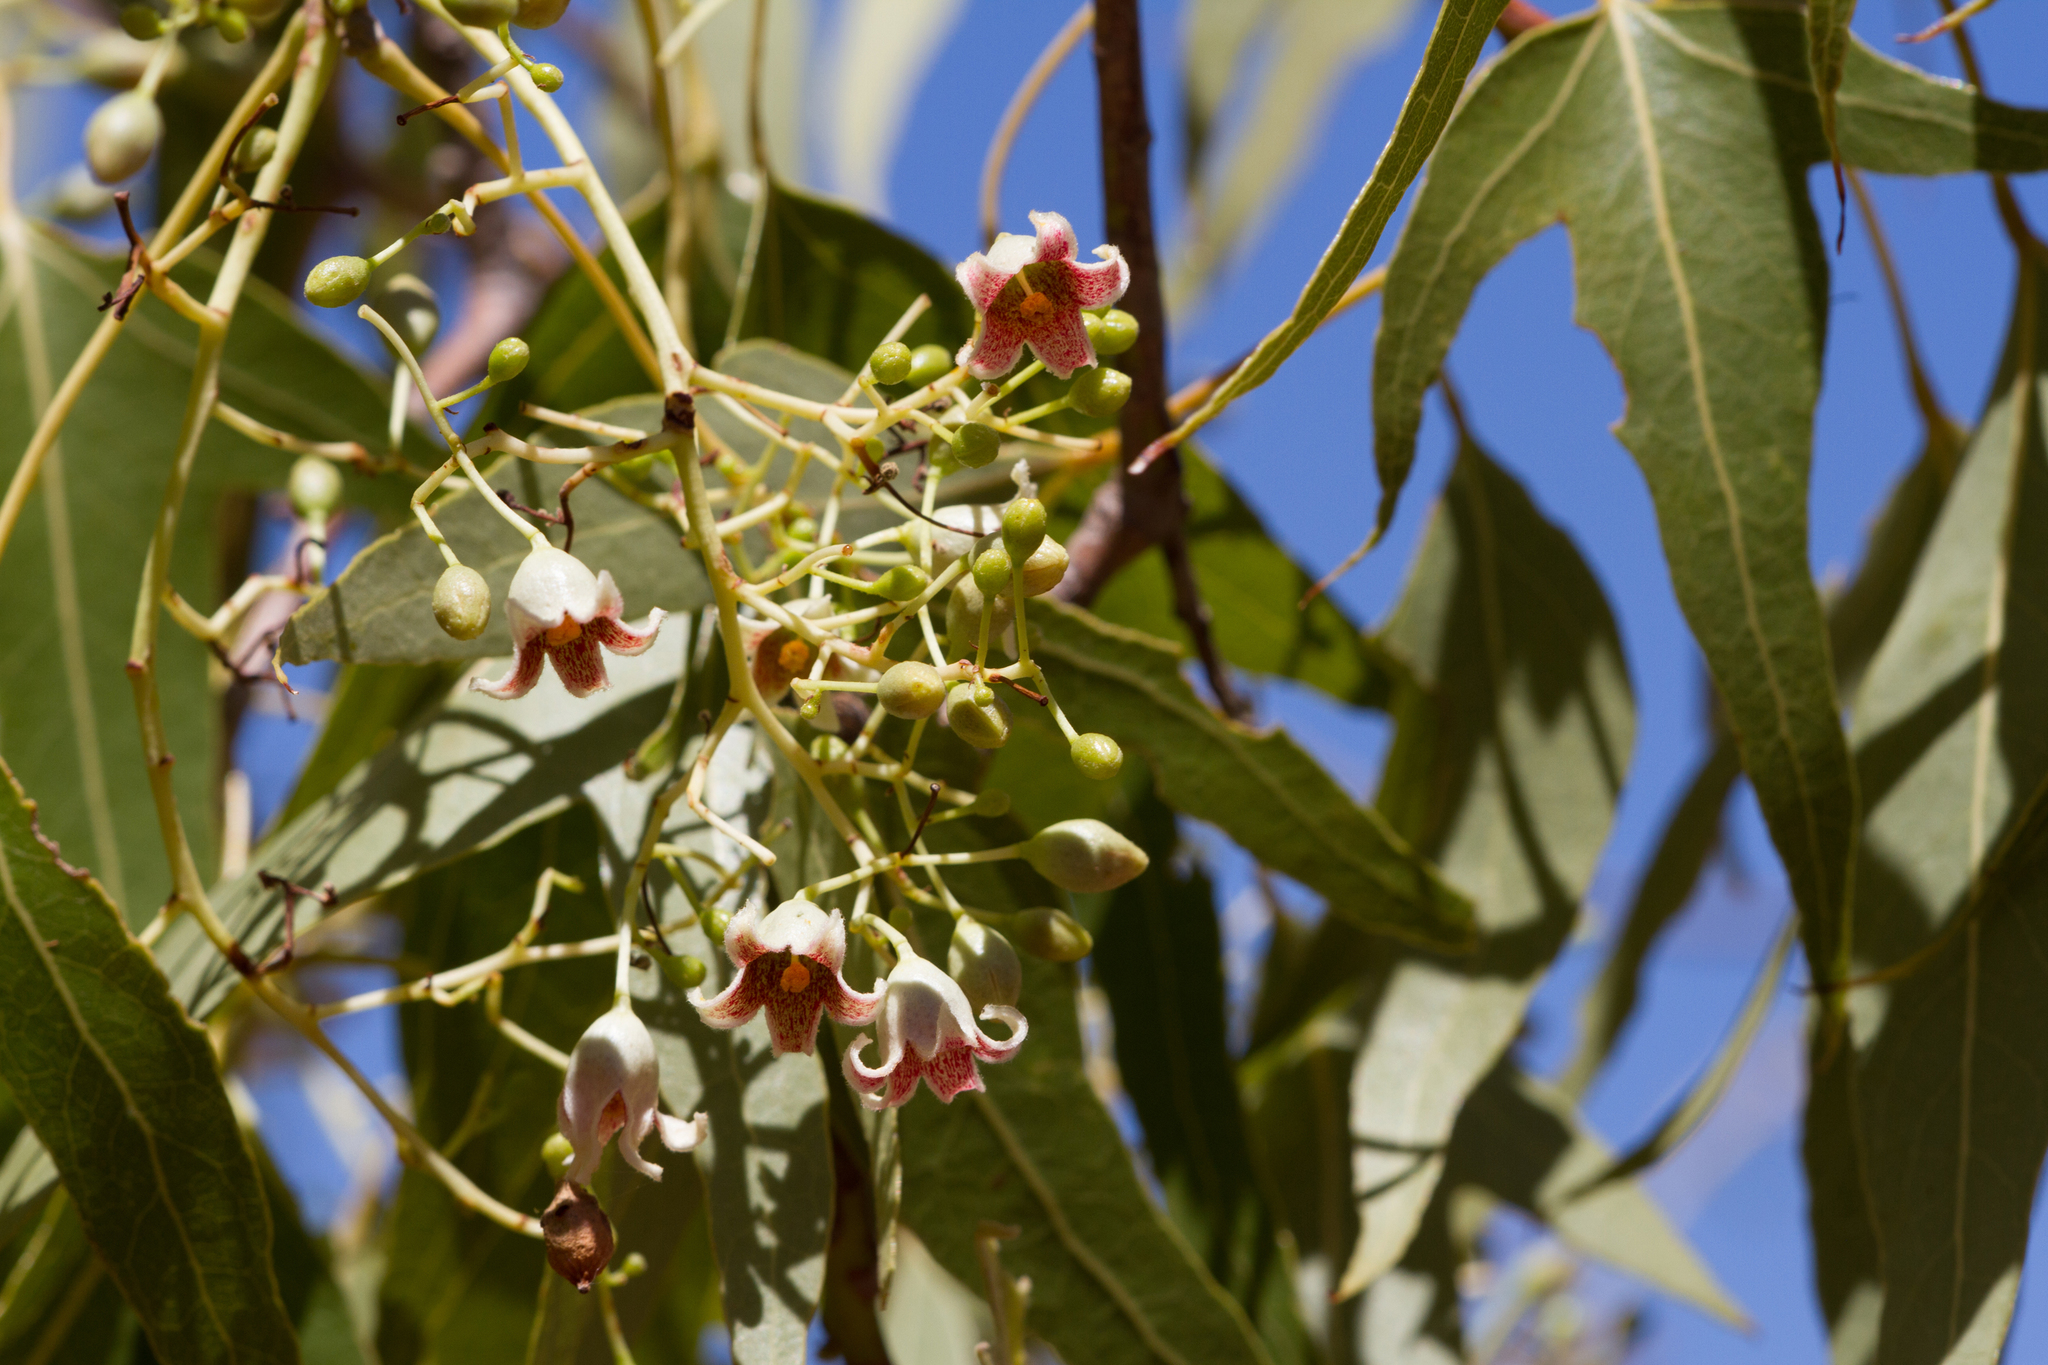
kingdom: Plantae
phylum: Tracheophyta
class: Magnoliopsida
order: Malvales
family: Malvaceae
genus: Brachychiton
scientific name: Brachychiton populneus
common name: Kurrajong
